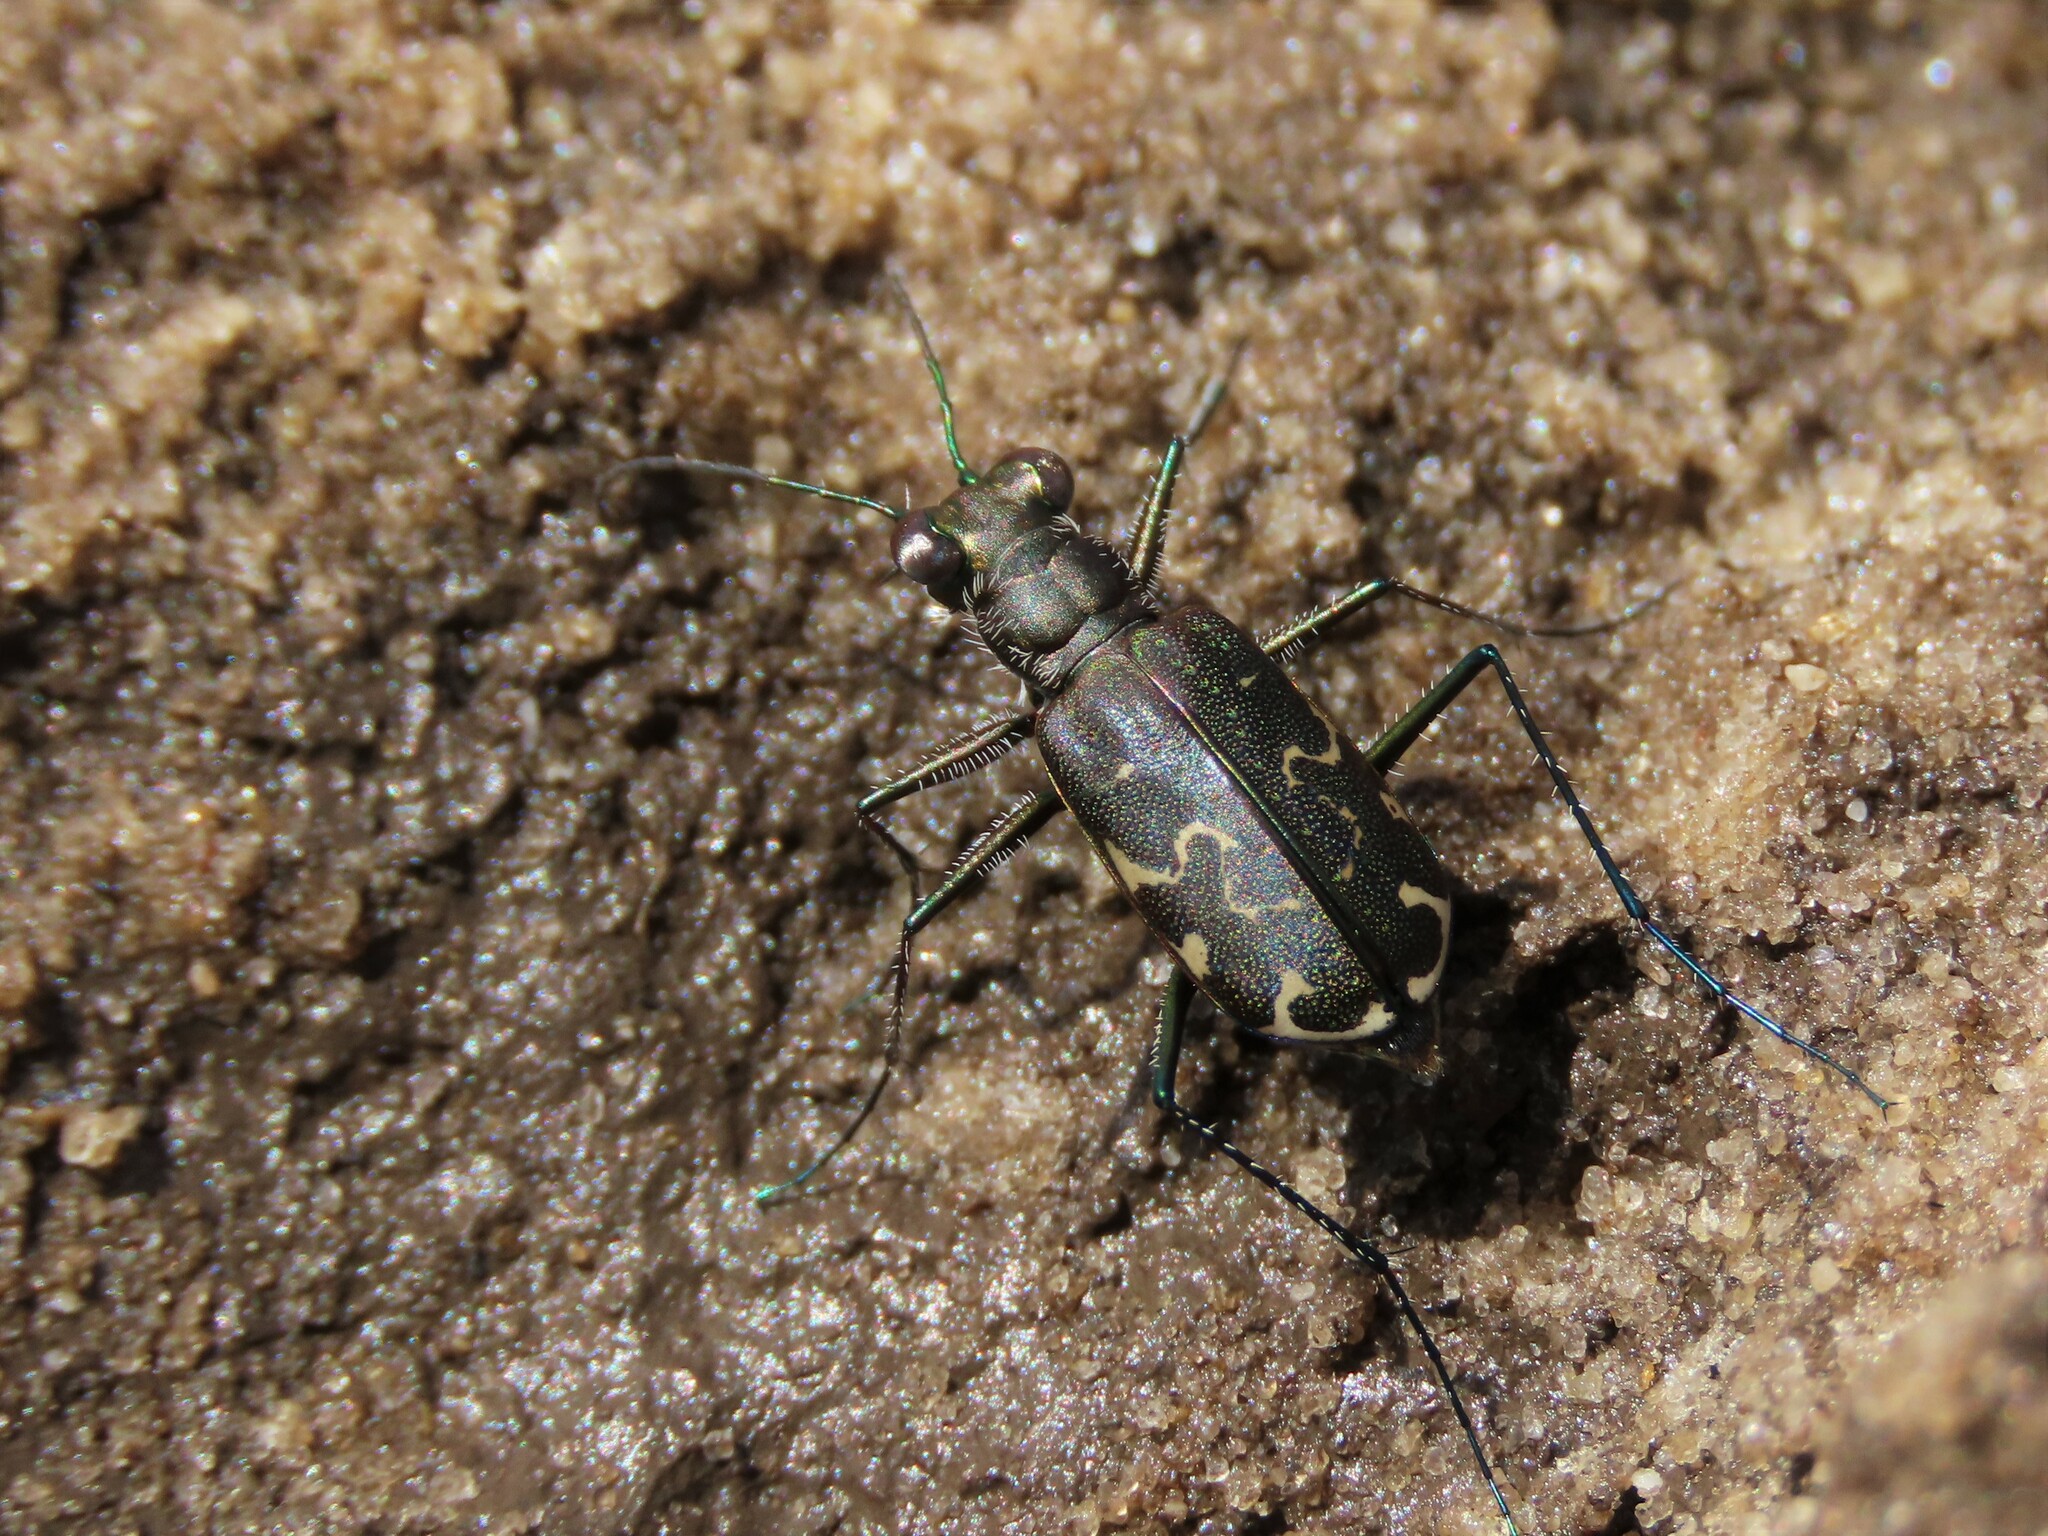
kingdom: Animalia
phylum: Arthropoda
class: Insecta
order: Coleoptera
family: Carabidae
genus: Cicindela
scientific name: Cicindela trifasciata
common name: Mudflat tiger beetle
